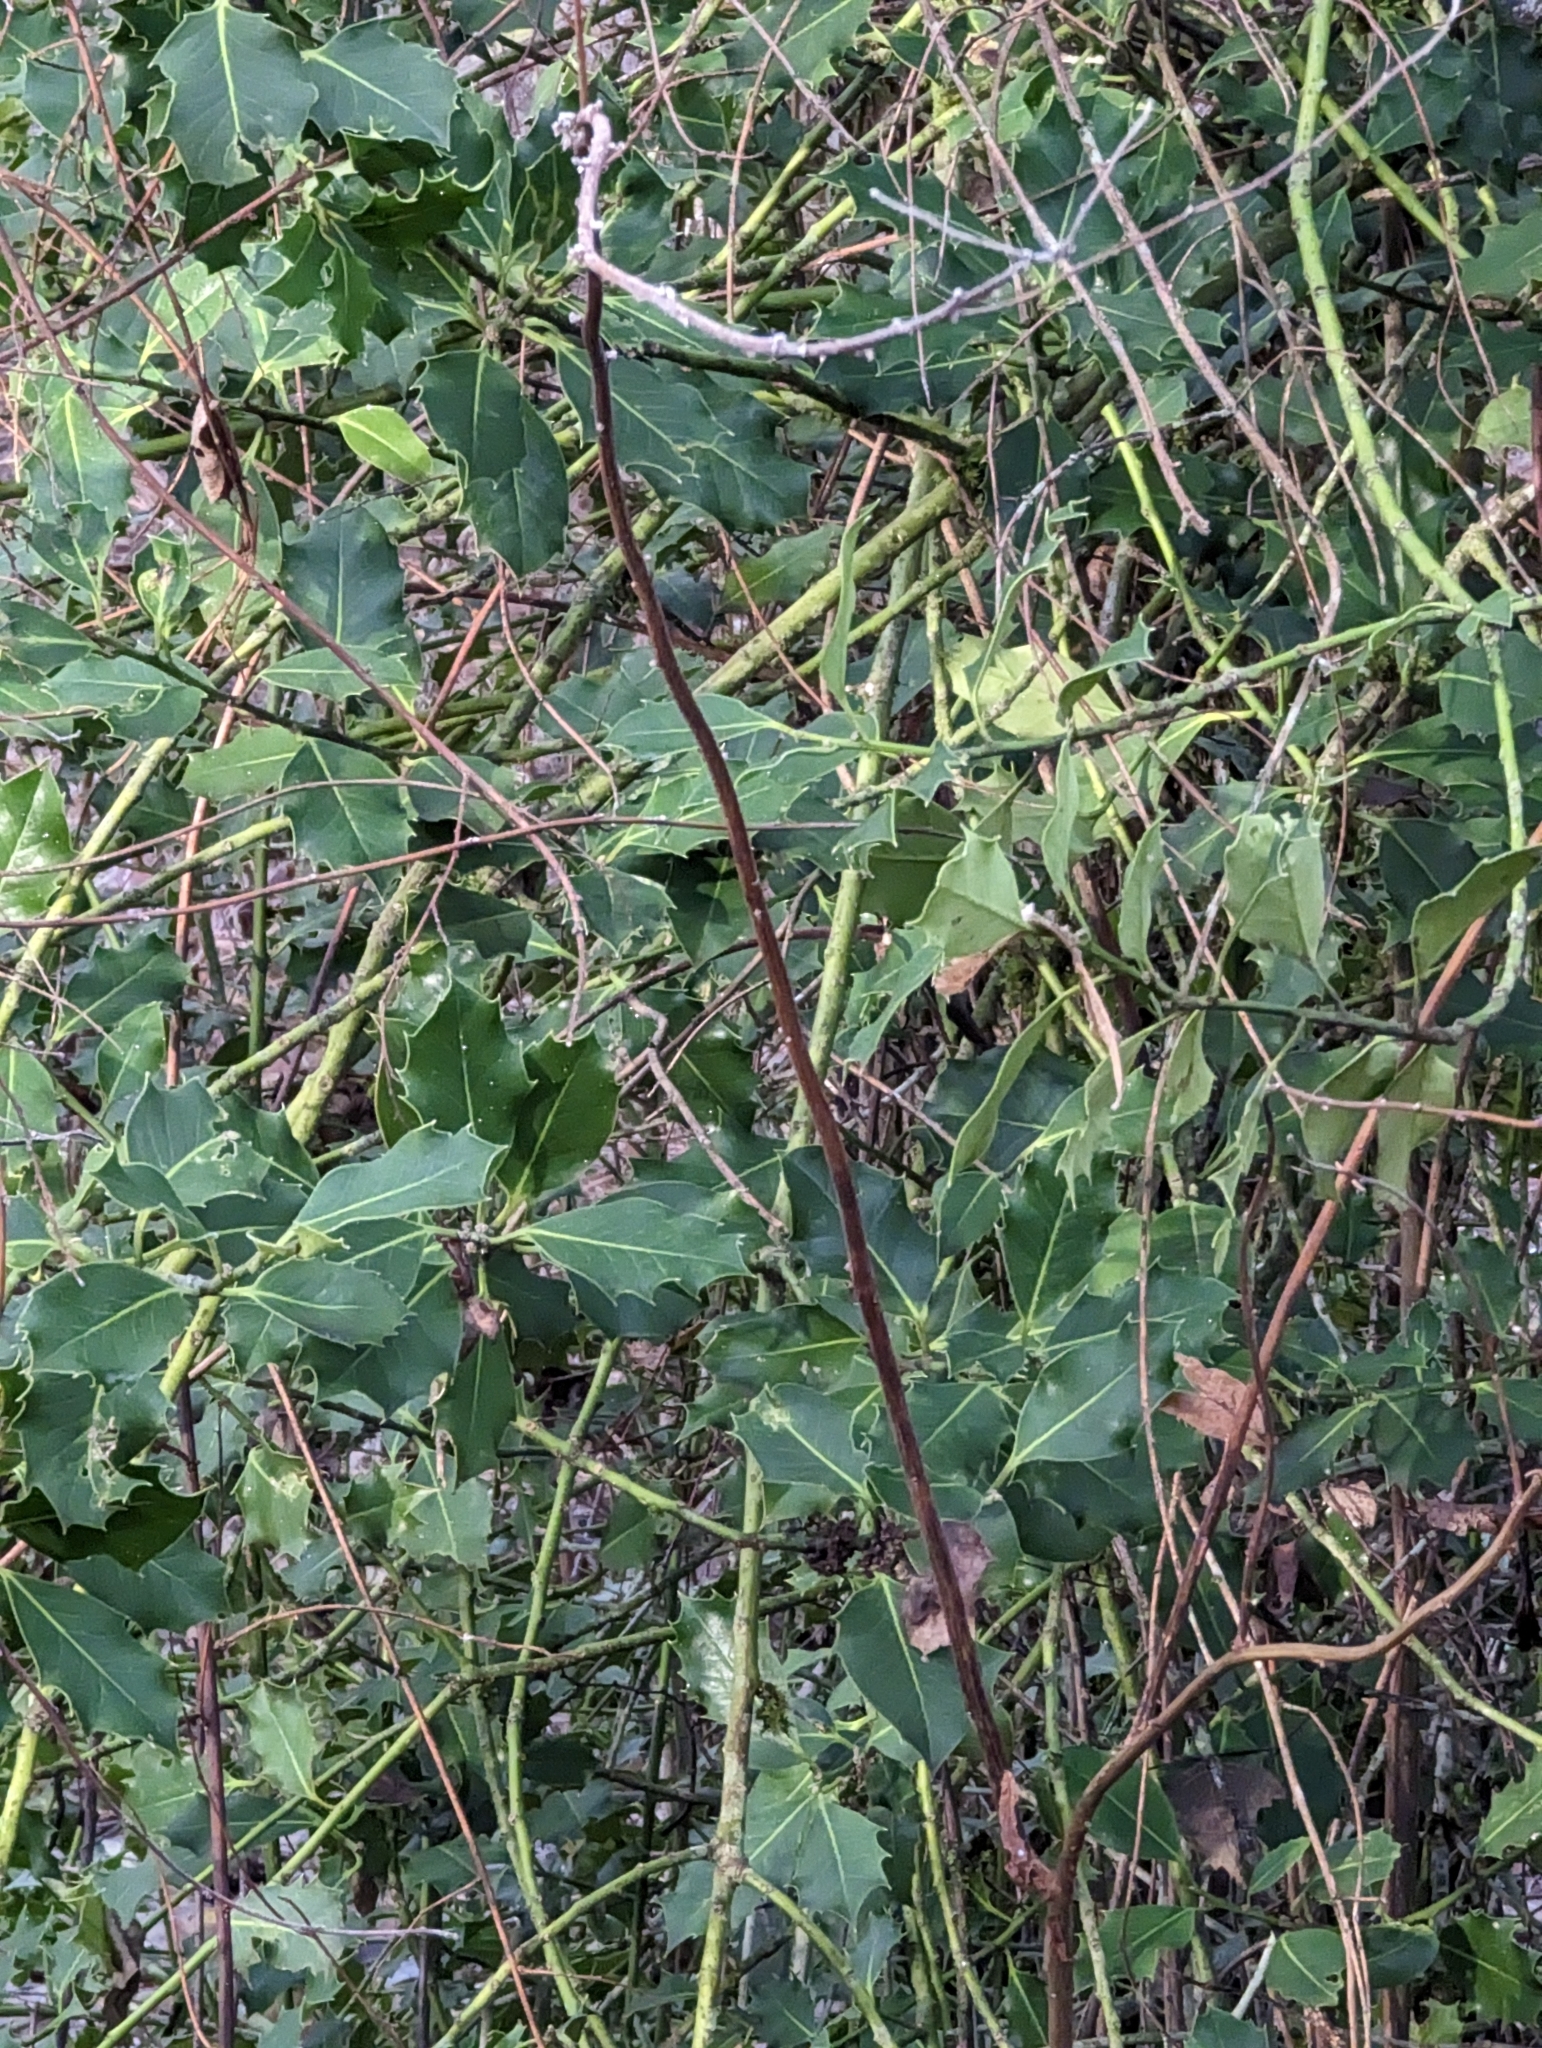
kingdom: Plantae
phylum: Tracheophyta
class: Magnoliopsida
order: Aquifoliales
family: Aquifoliaceae
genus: Ilex
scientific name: Ilex aquifolium
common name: English holly
